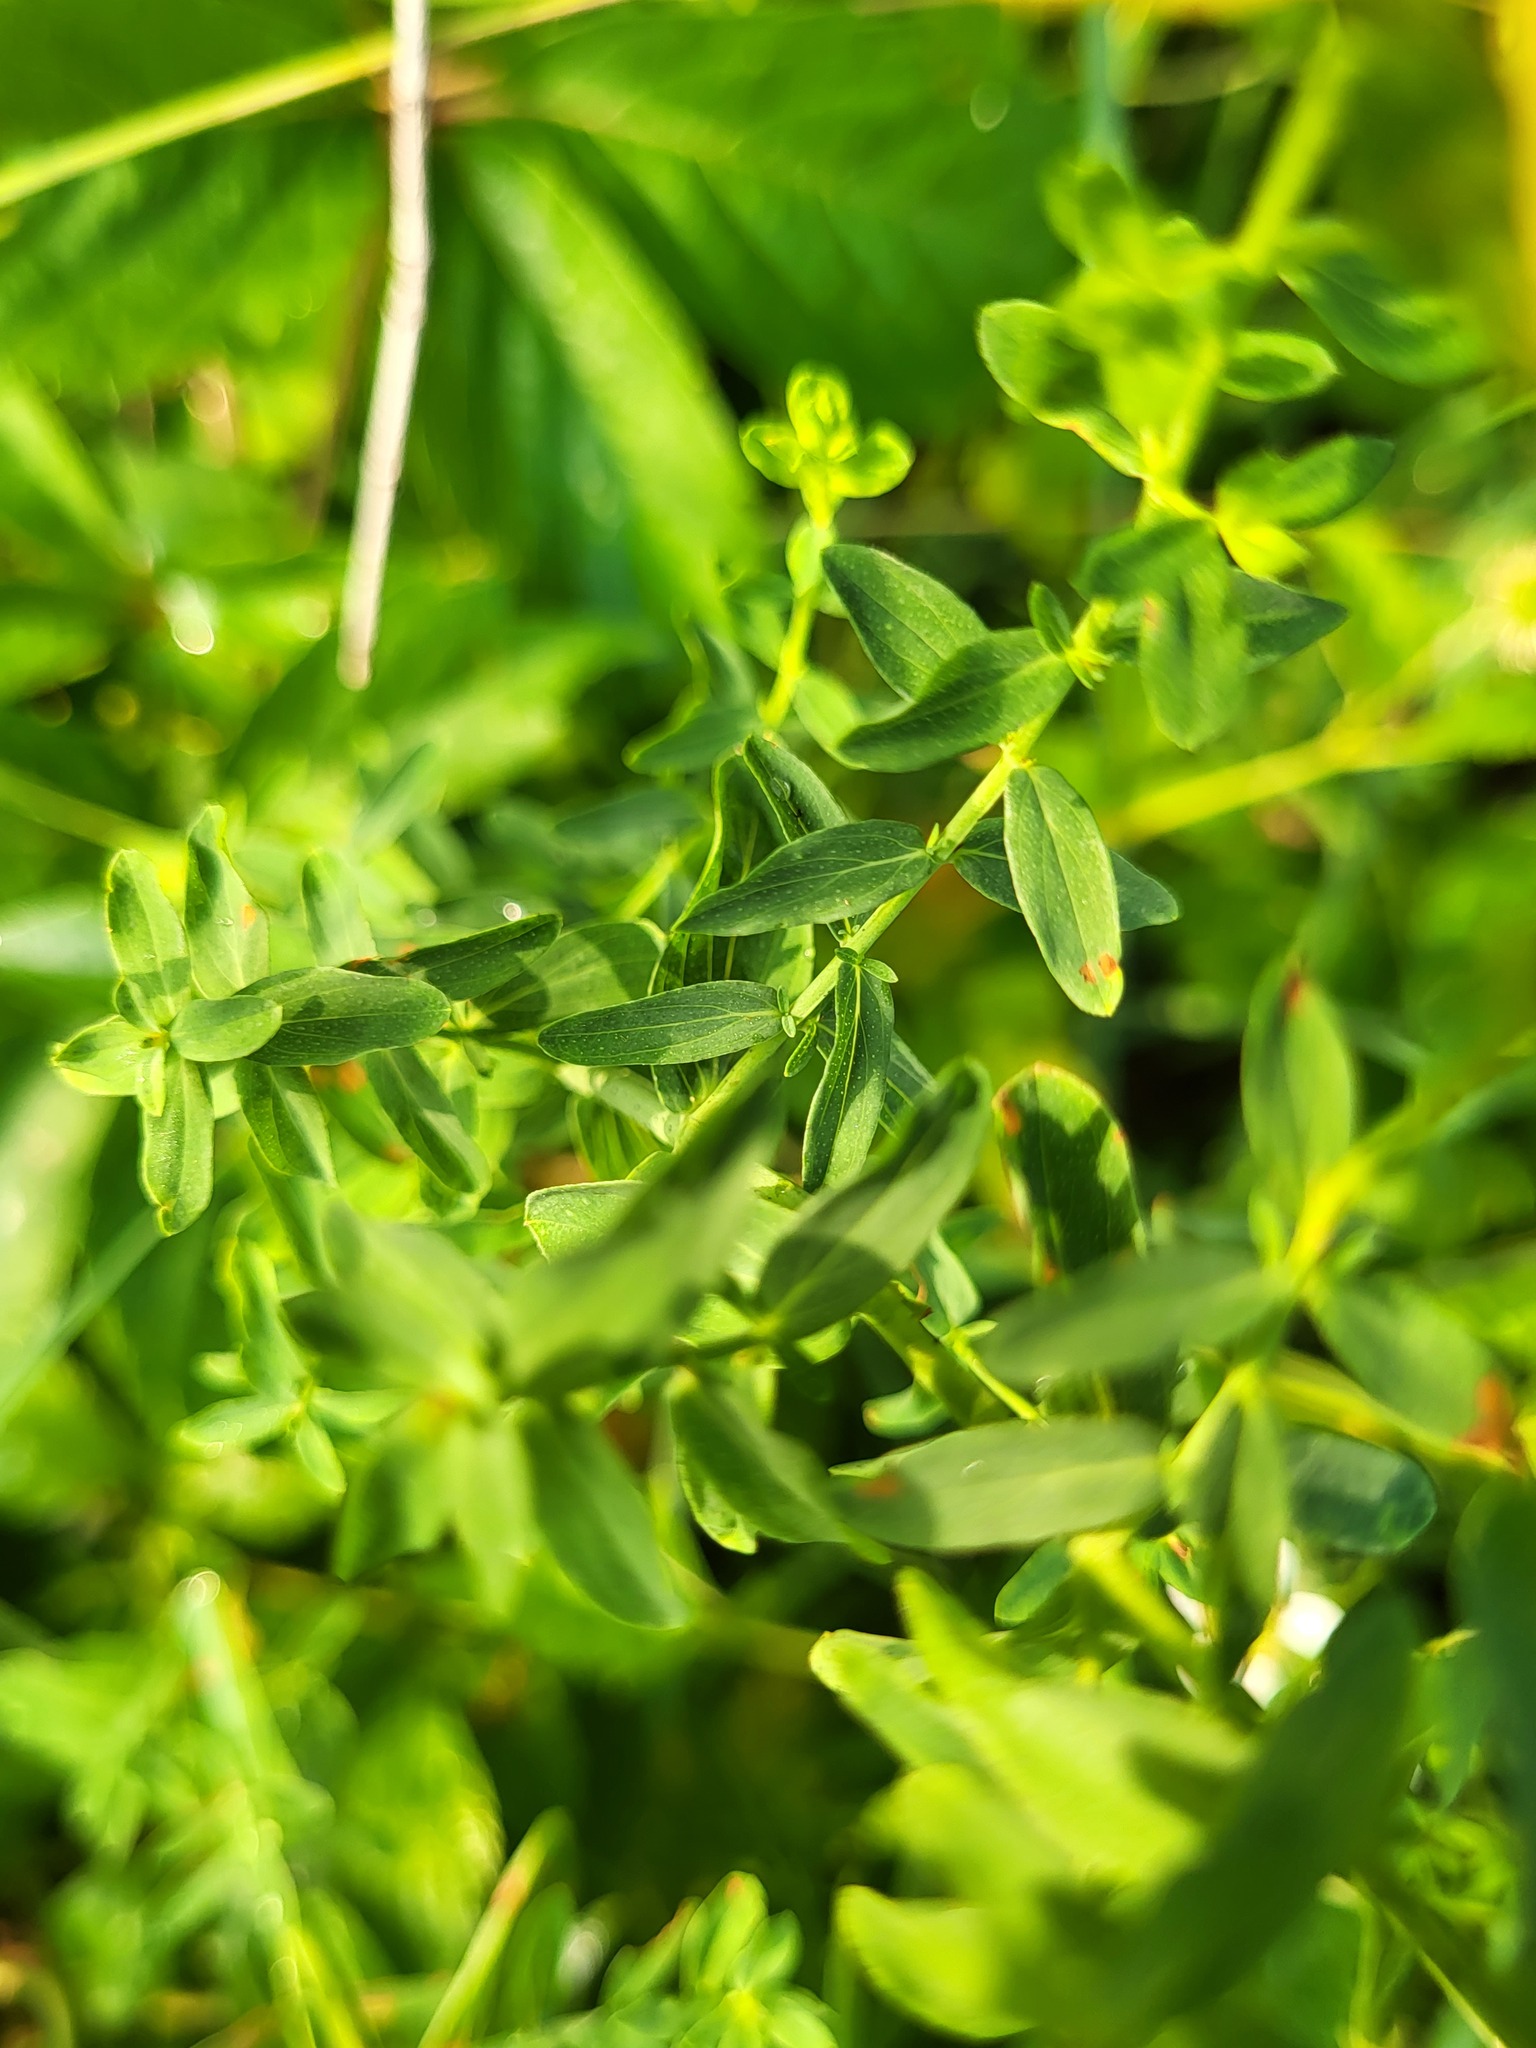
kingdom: Plantae
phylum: Tracheophyta
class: Magnoliopsida
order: Malpighiales
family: Hypericaceae
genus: Hypericum
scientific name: Hypericum perforatum
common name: Common st. johnswort
